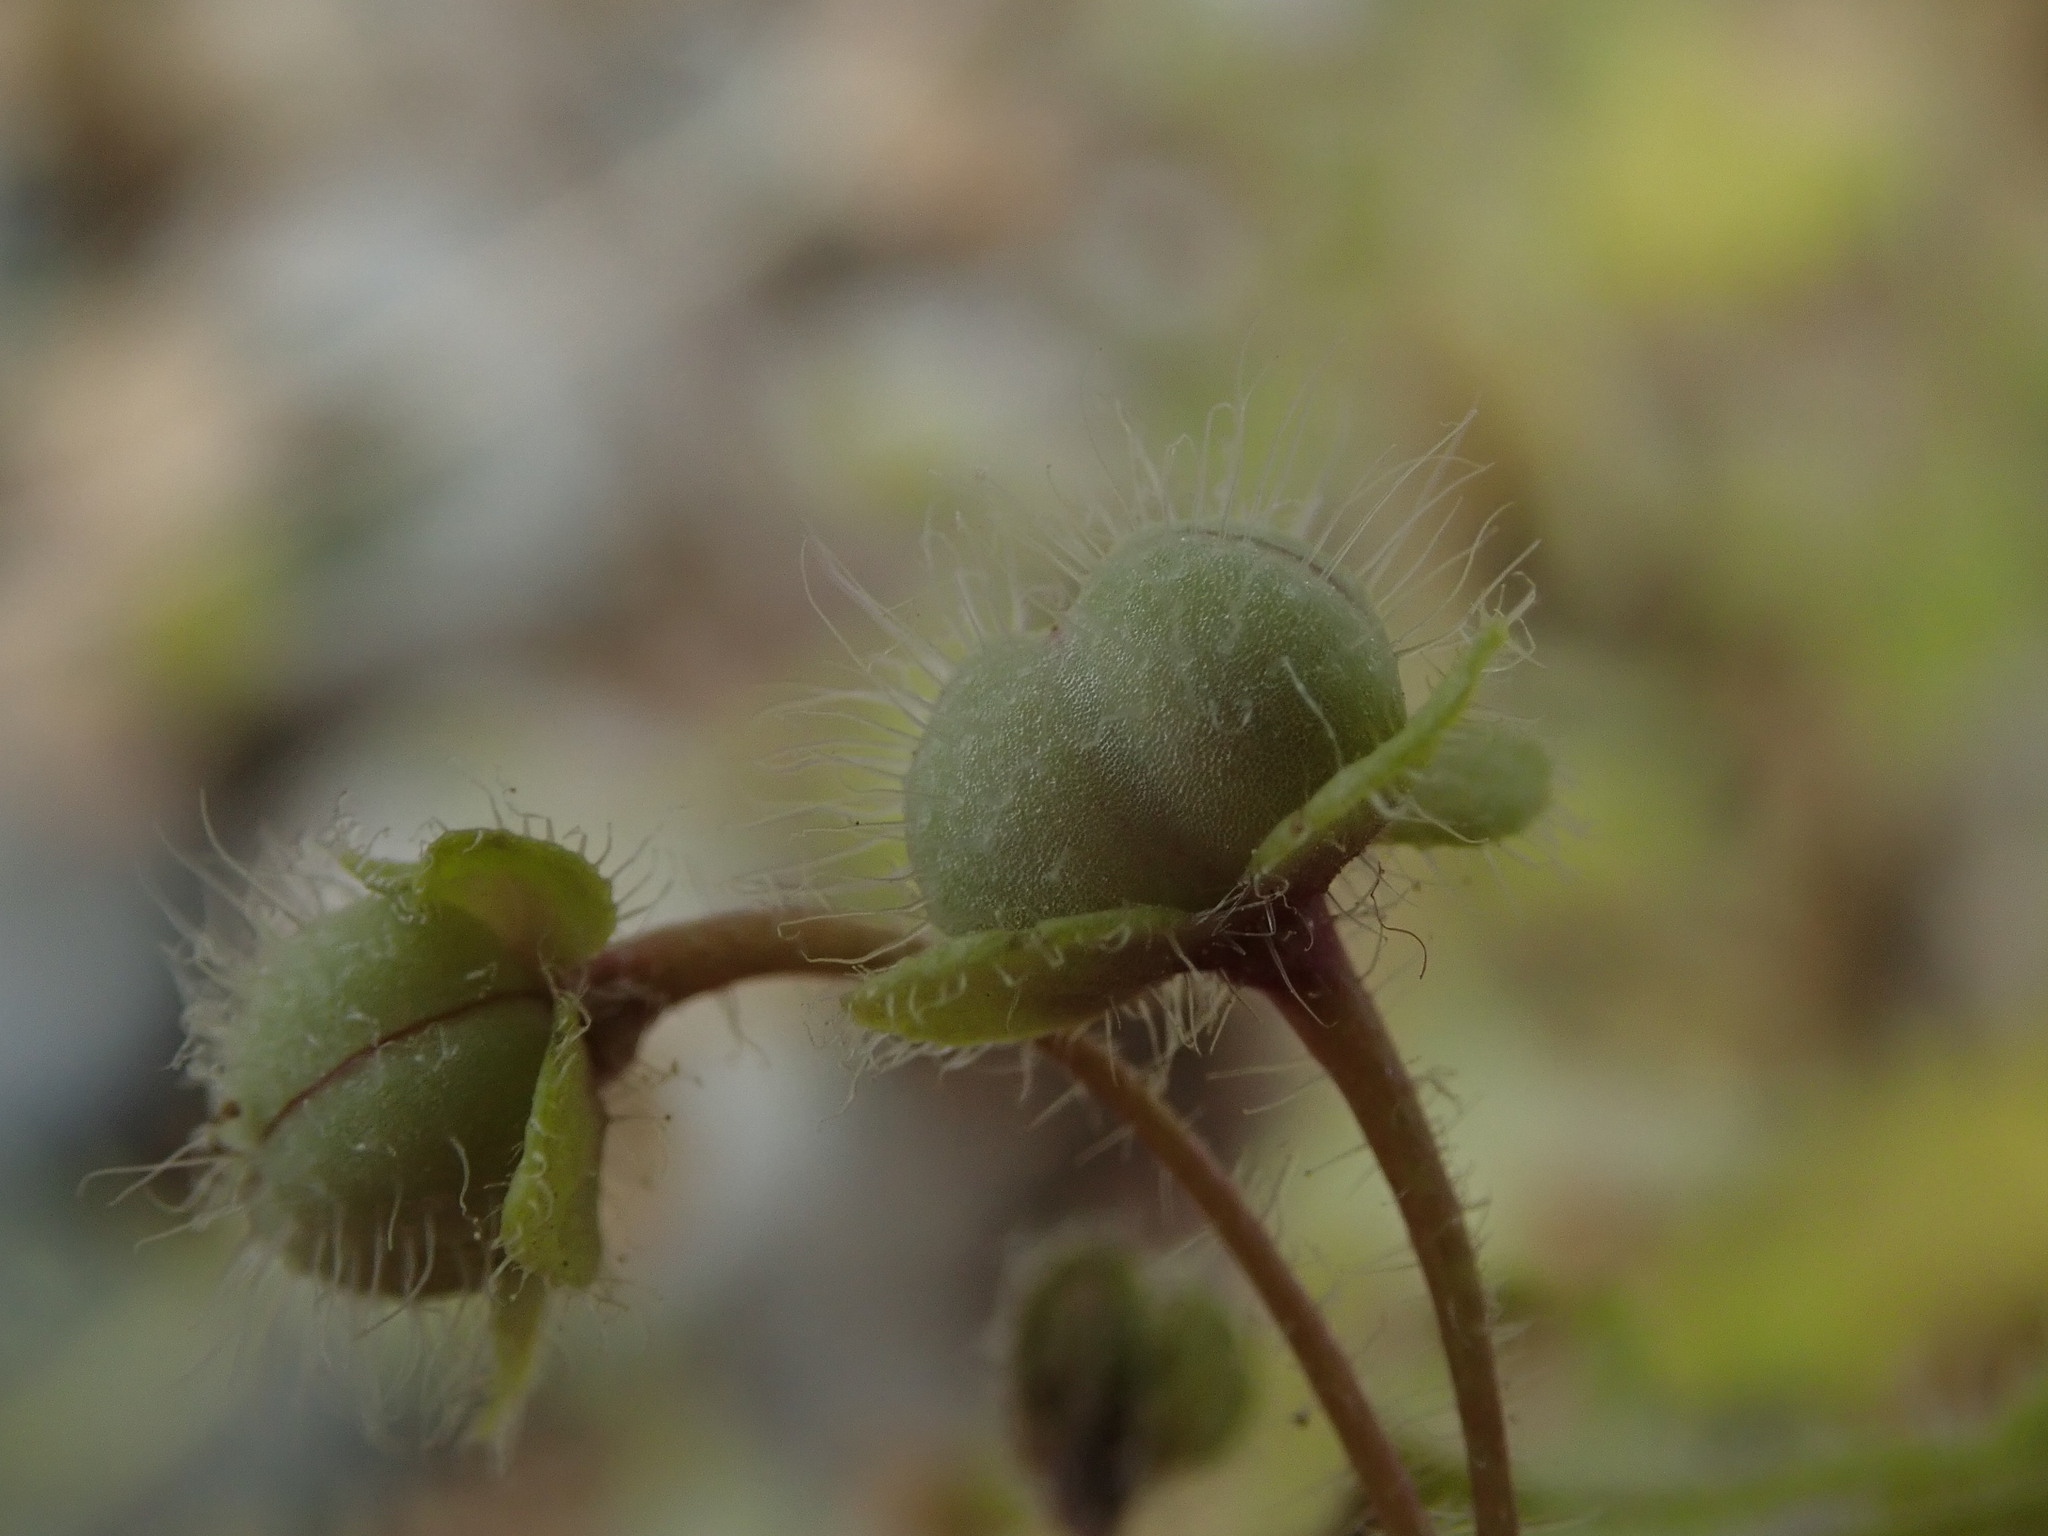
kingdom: Plantae
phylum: Tracheophyta
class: Magnoliopsida
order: Lamiales
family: Plantaginaceae
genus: Veronica
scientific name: Veronica cymbalaria
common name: Pale speedwell
